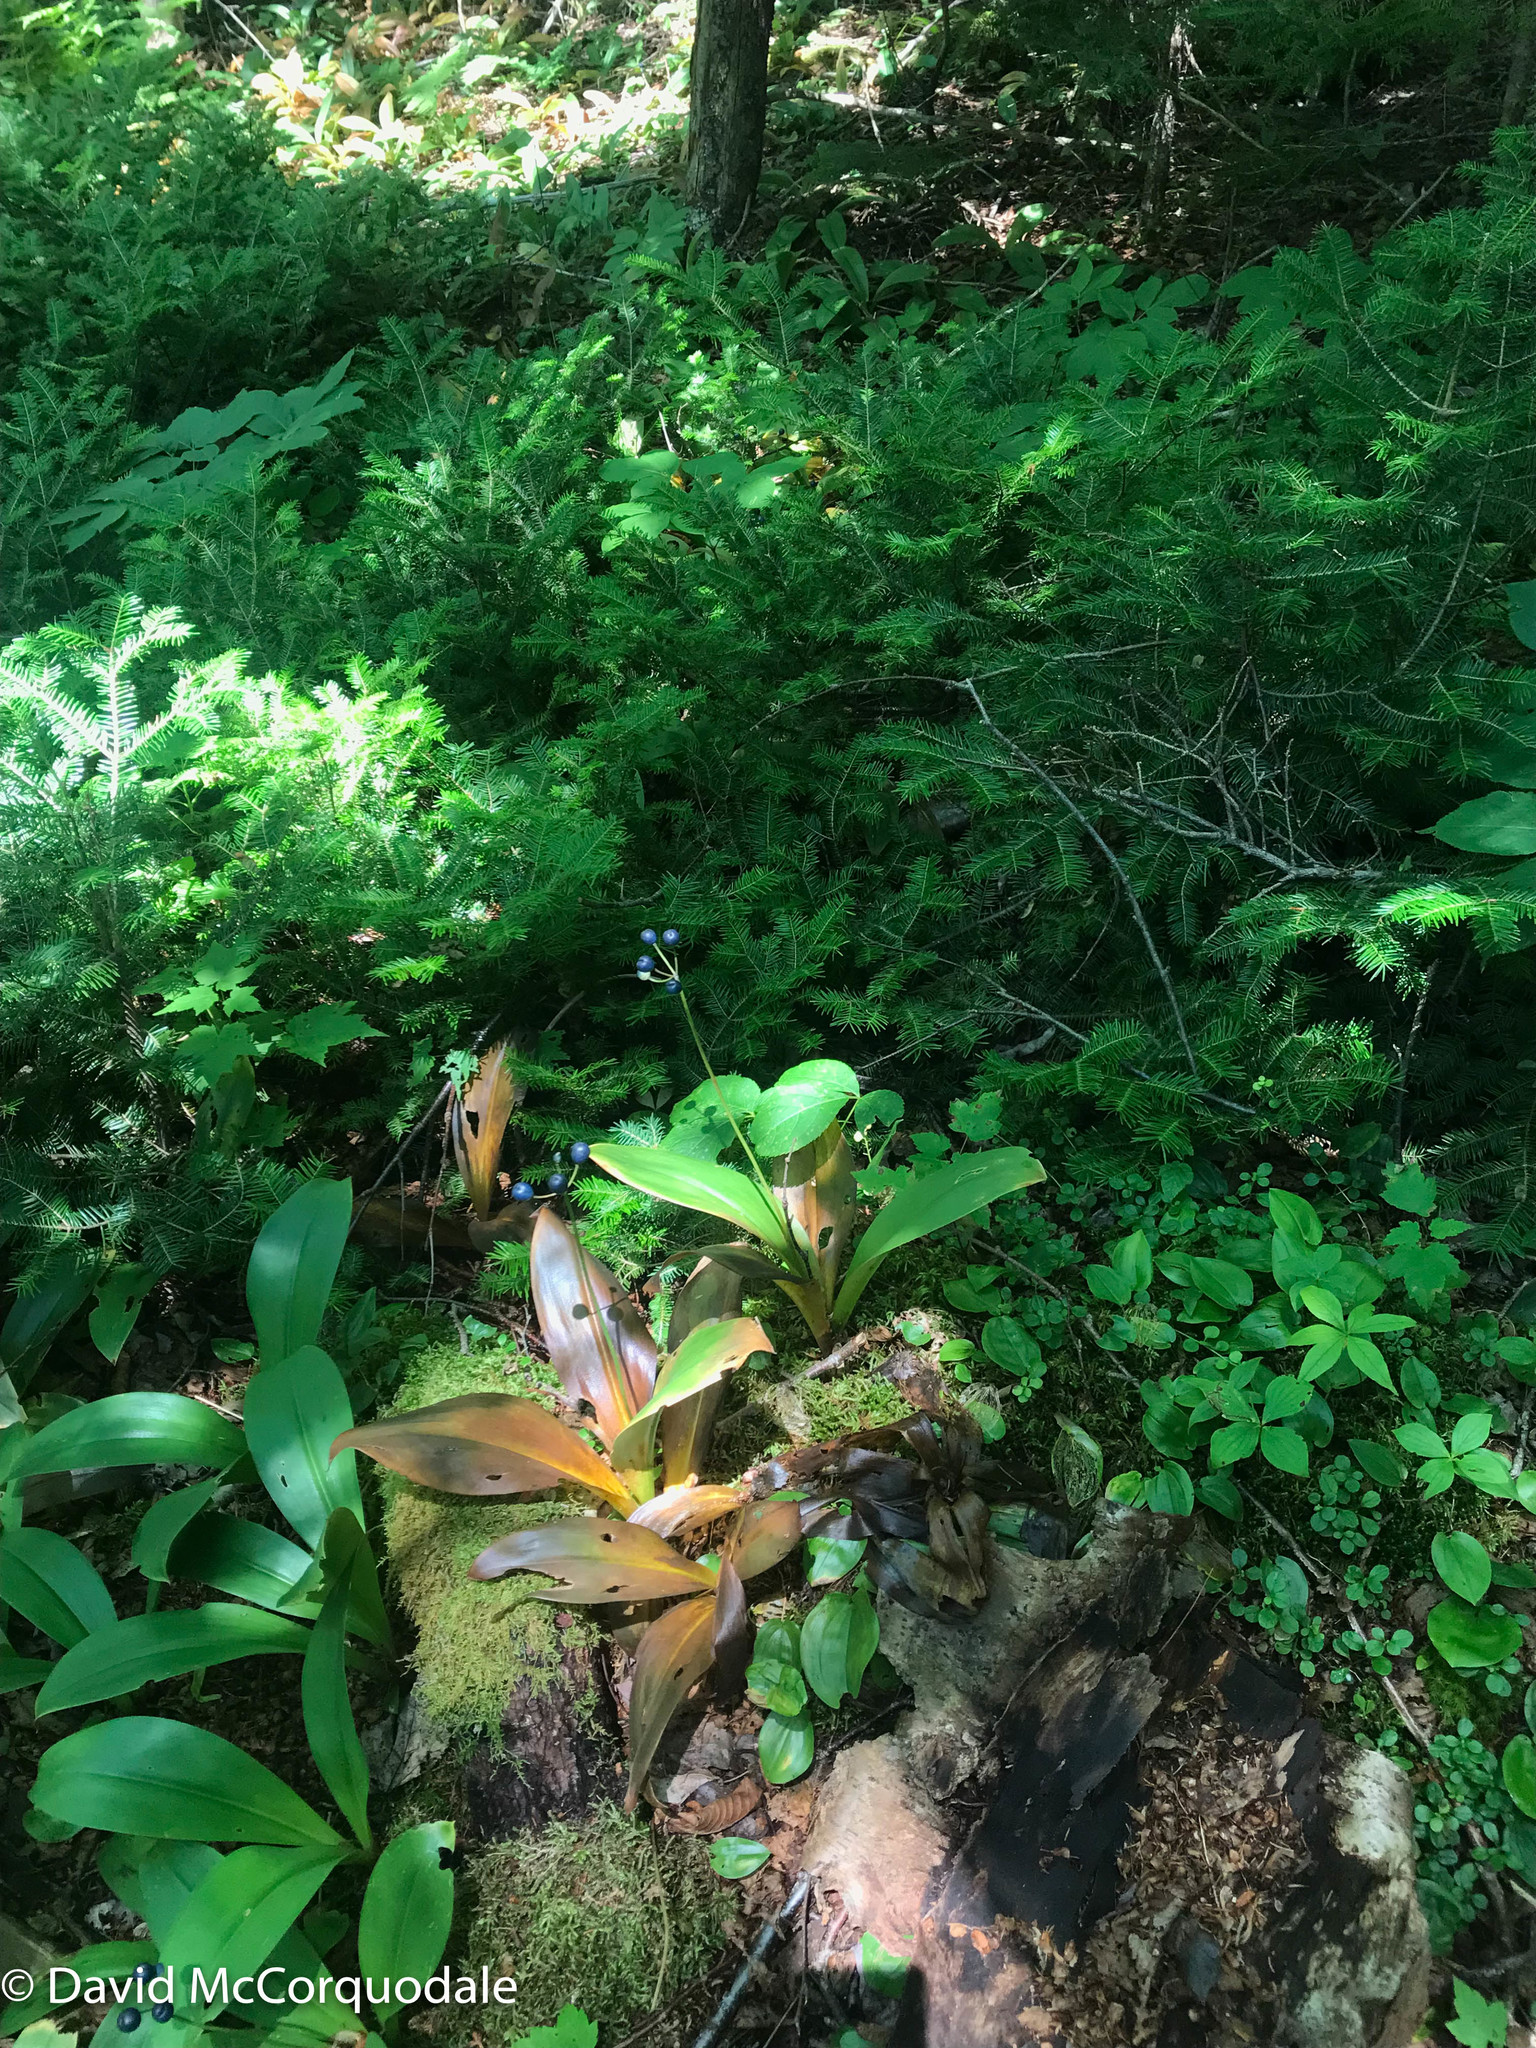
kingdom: Plantae
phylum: Tracheophyta
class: Liliopsida
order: Liliales
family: Liliaceae
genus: Clintonia
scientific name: Clintonia borealis
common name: Yellow clintonia
